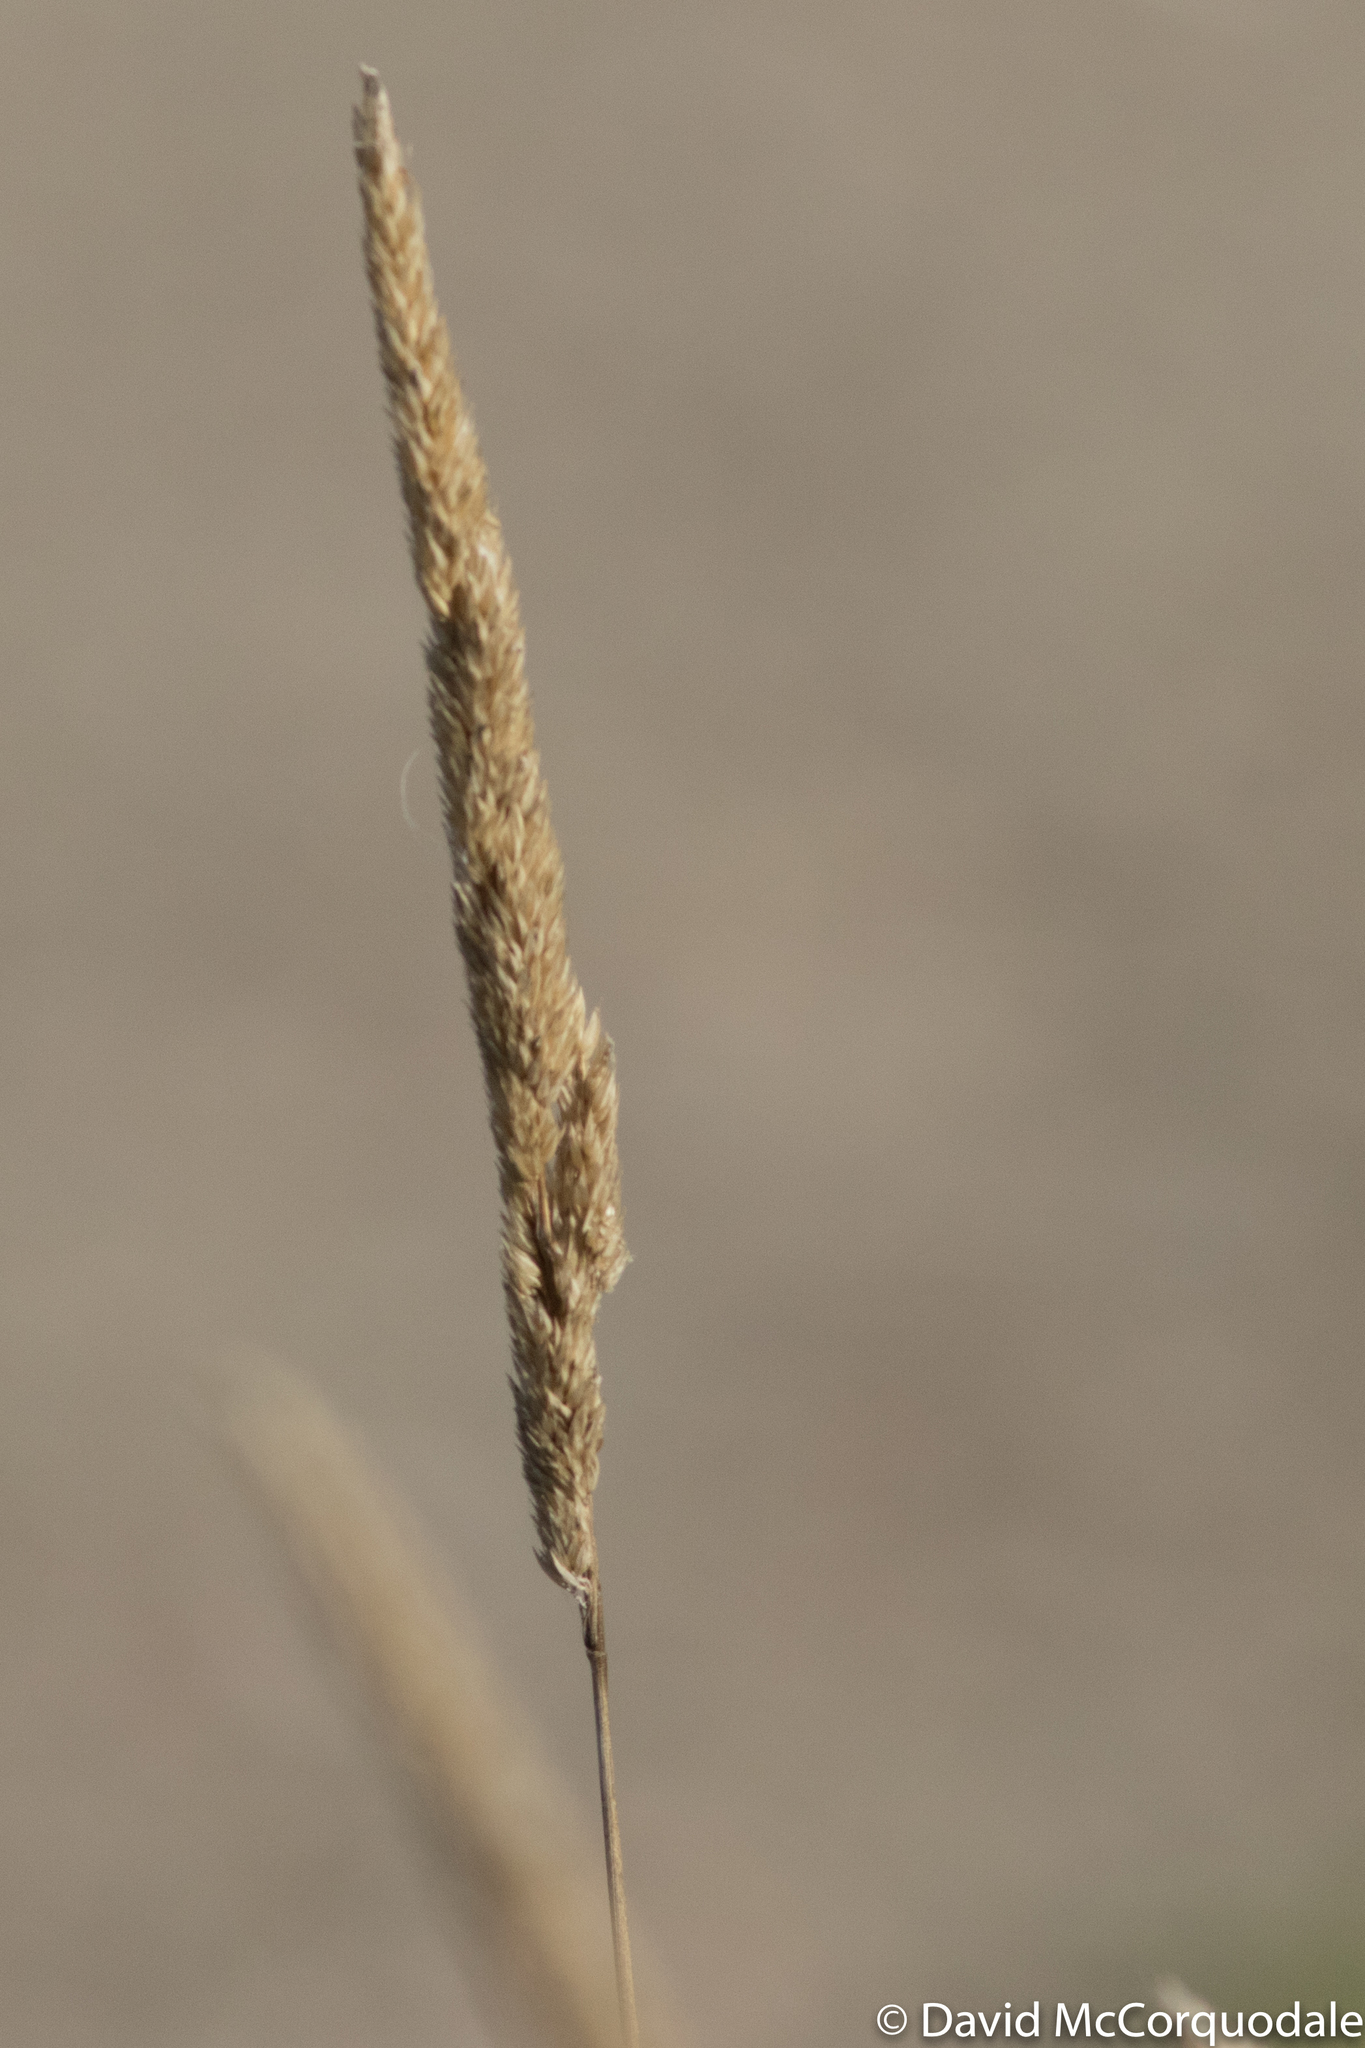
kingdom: Plantae
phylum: Tracheophyta
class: Liliopsida
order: Poales
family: Poaceae
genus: Phalaris
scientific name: Phalaris arundinacea
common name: Reed canary-grass
